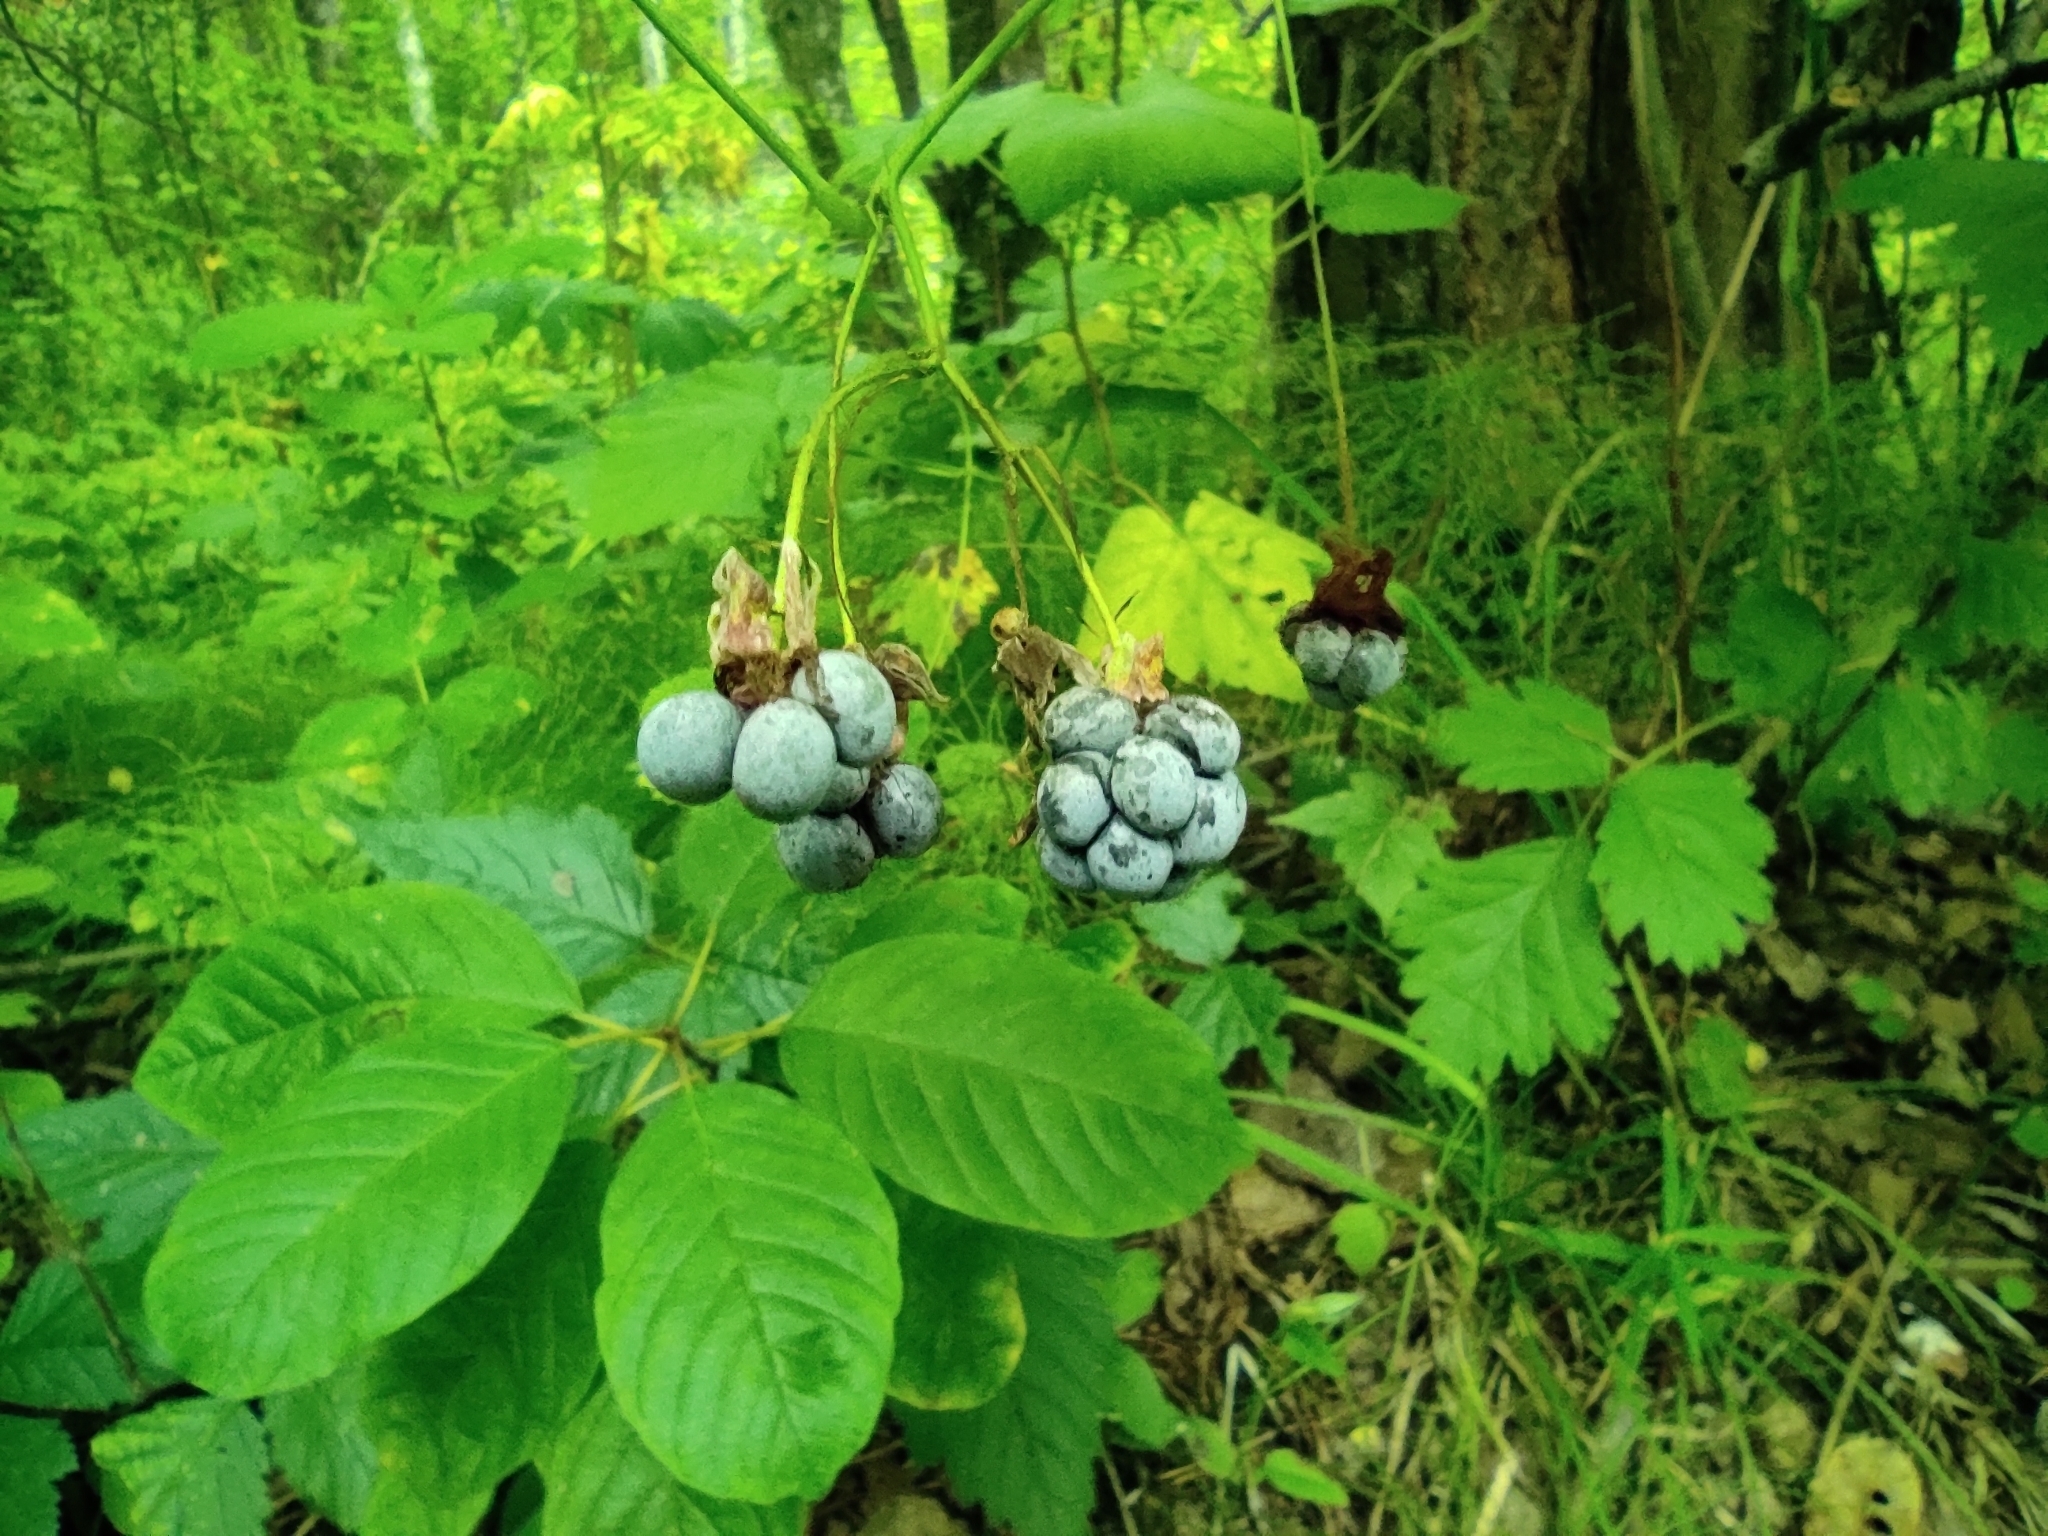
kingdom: Plantae
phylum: Tracheophyta
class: Magnoliopsida
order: Rosales
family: Rosaceae
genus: Rubus
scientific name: Rubus caesius
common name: Dewberry
